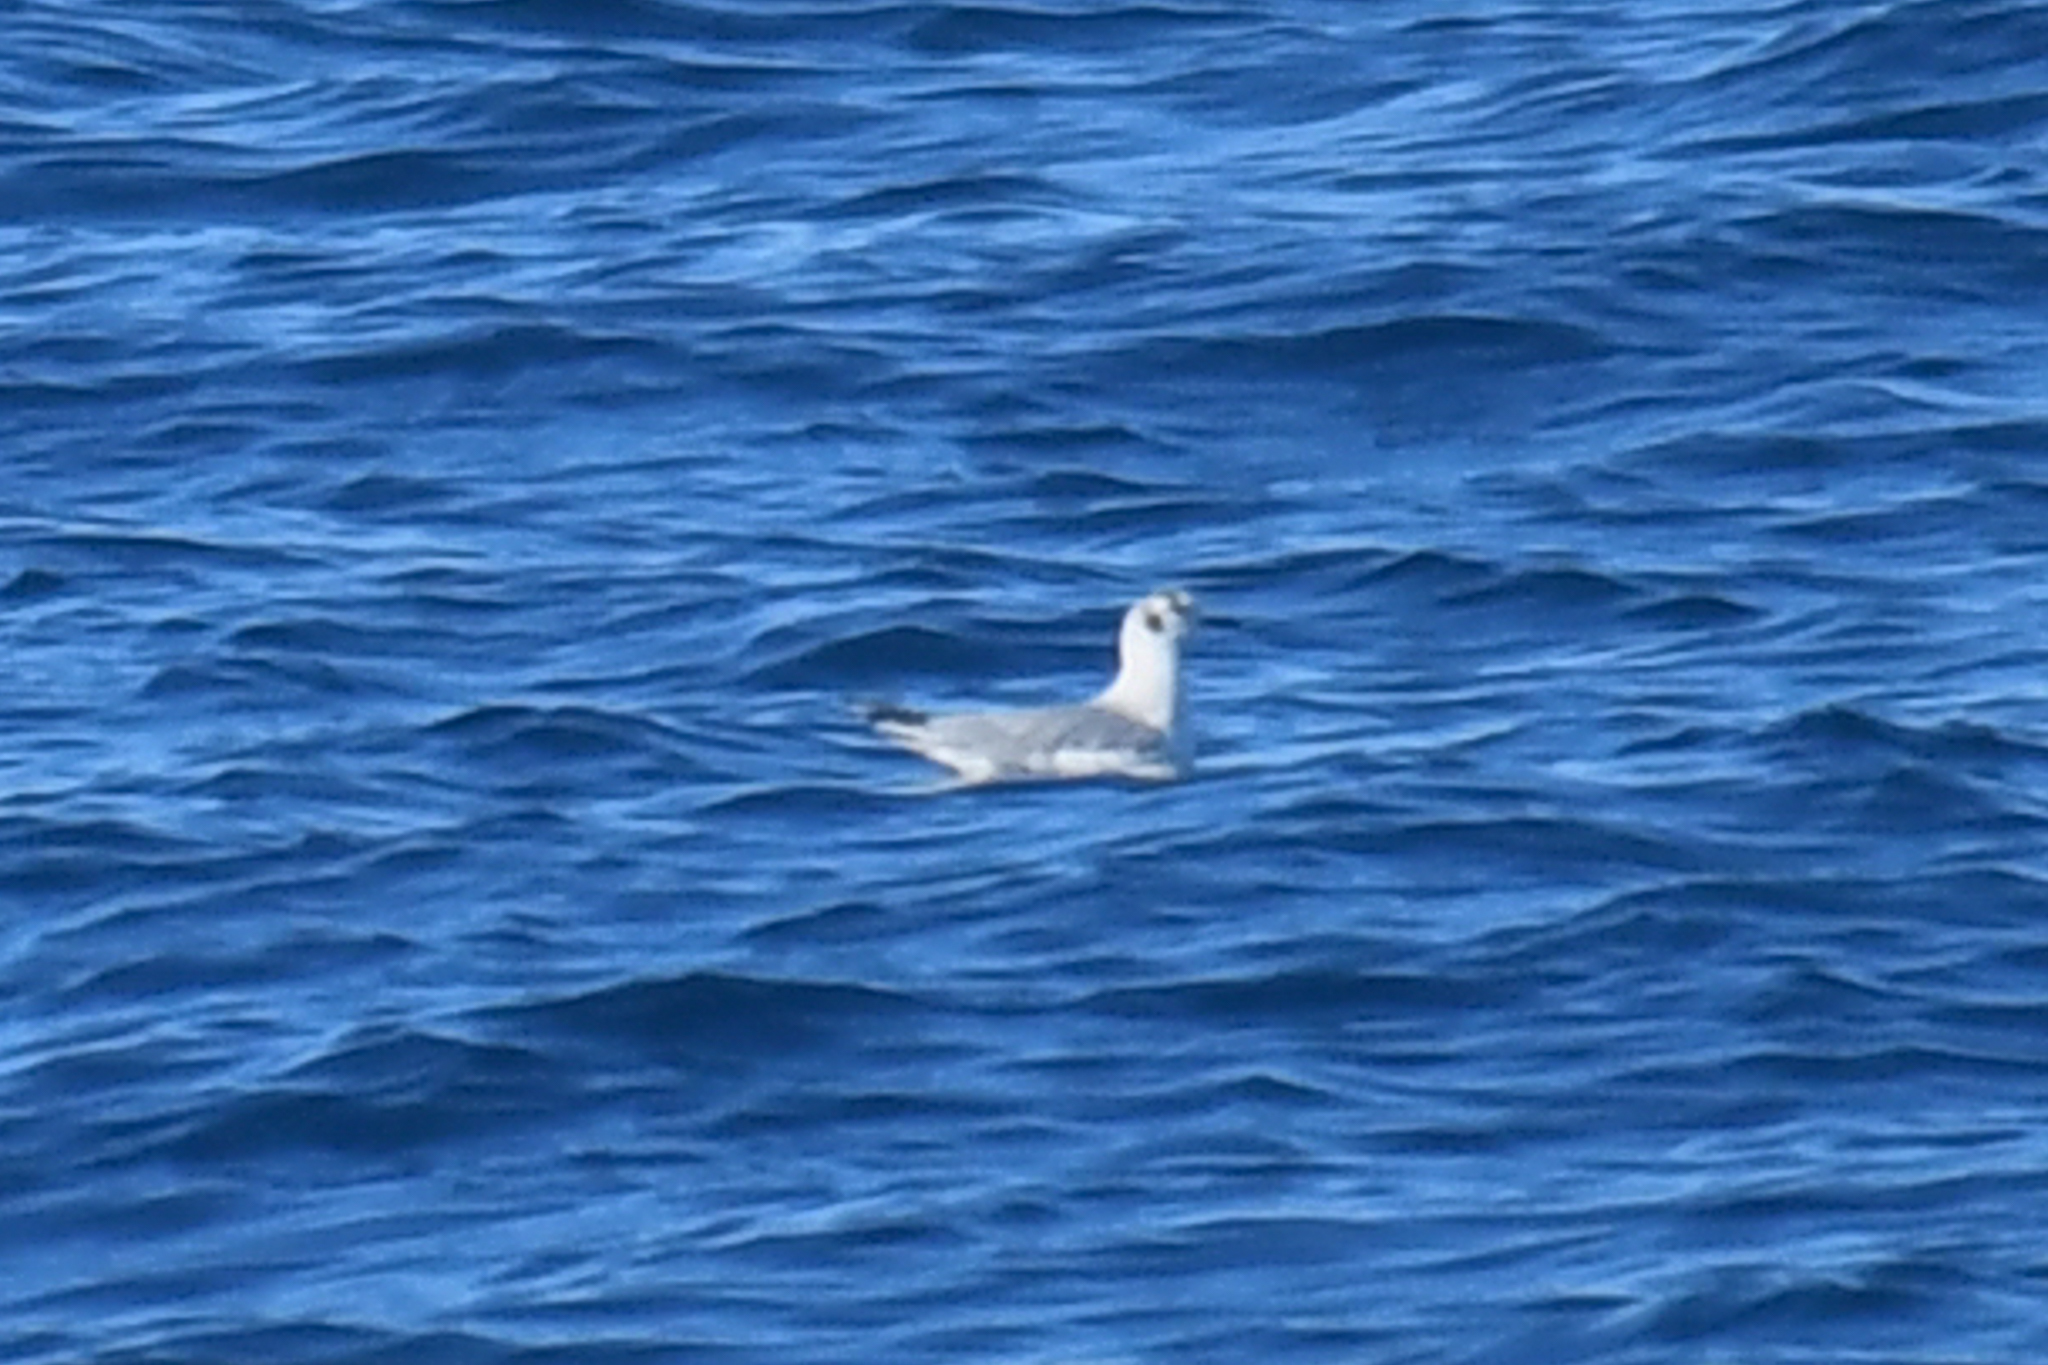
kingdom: Animalia
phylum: Chordata
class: Aves
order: Charadriiformes
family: Laridae
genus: Chroicocephalus
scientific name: Chroicocephalus philadelphia
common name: Bonaparte's gull
